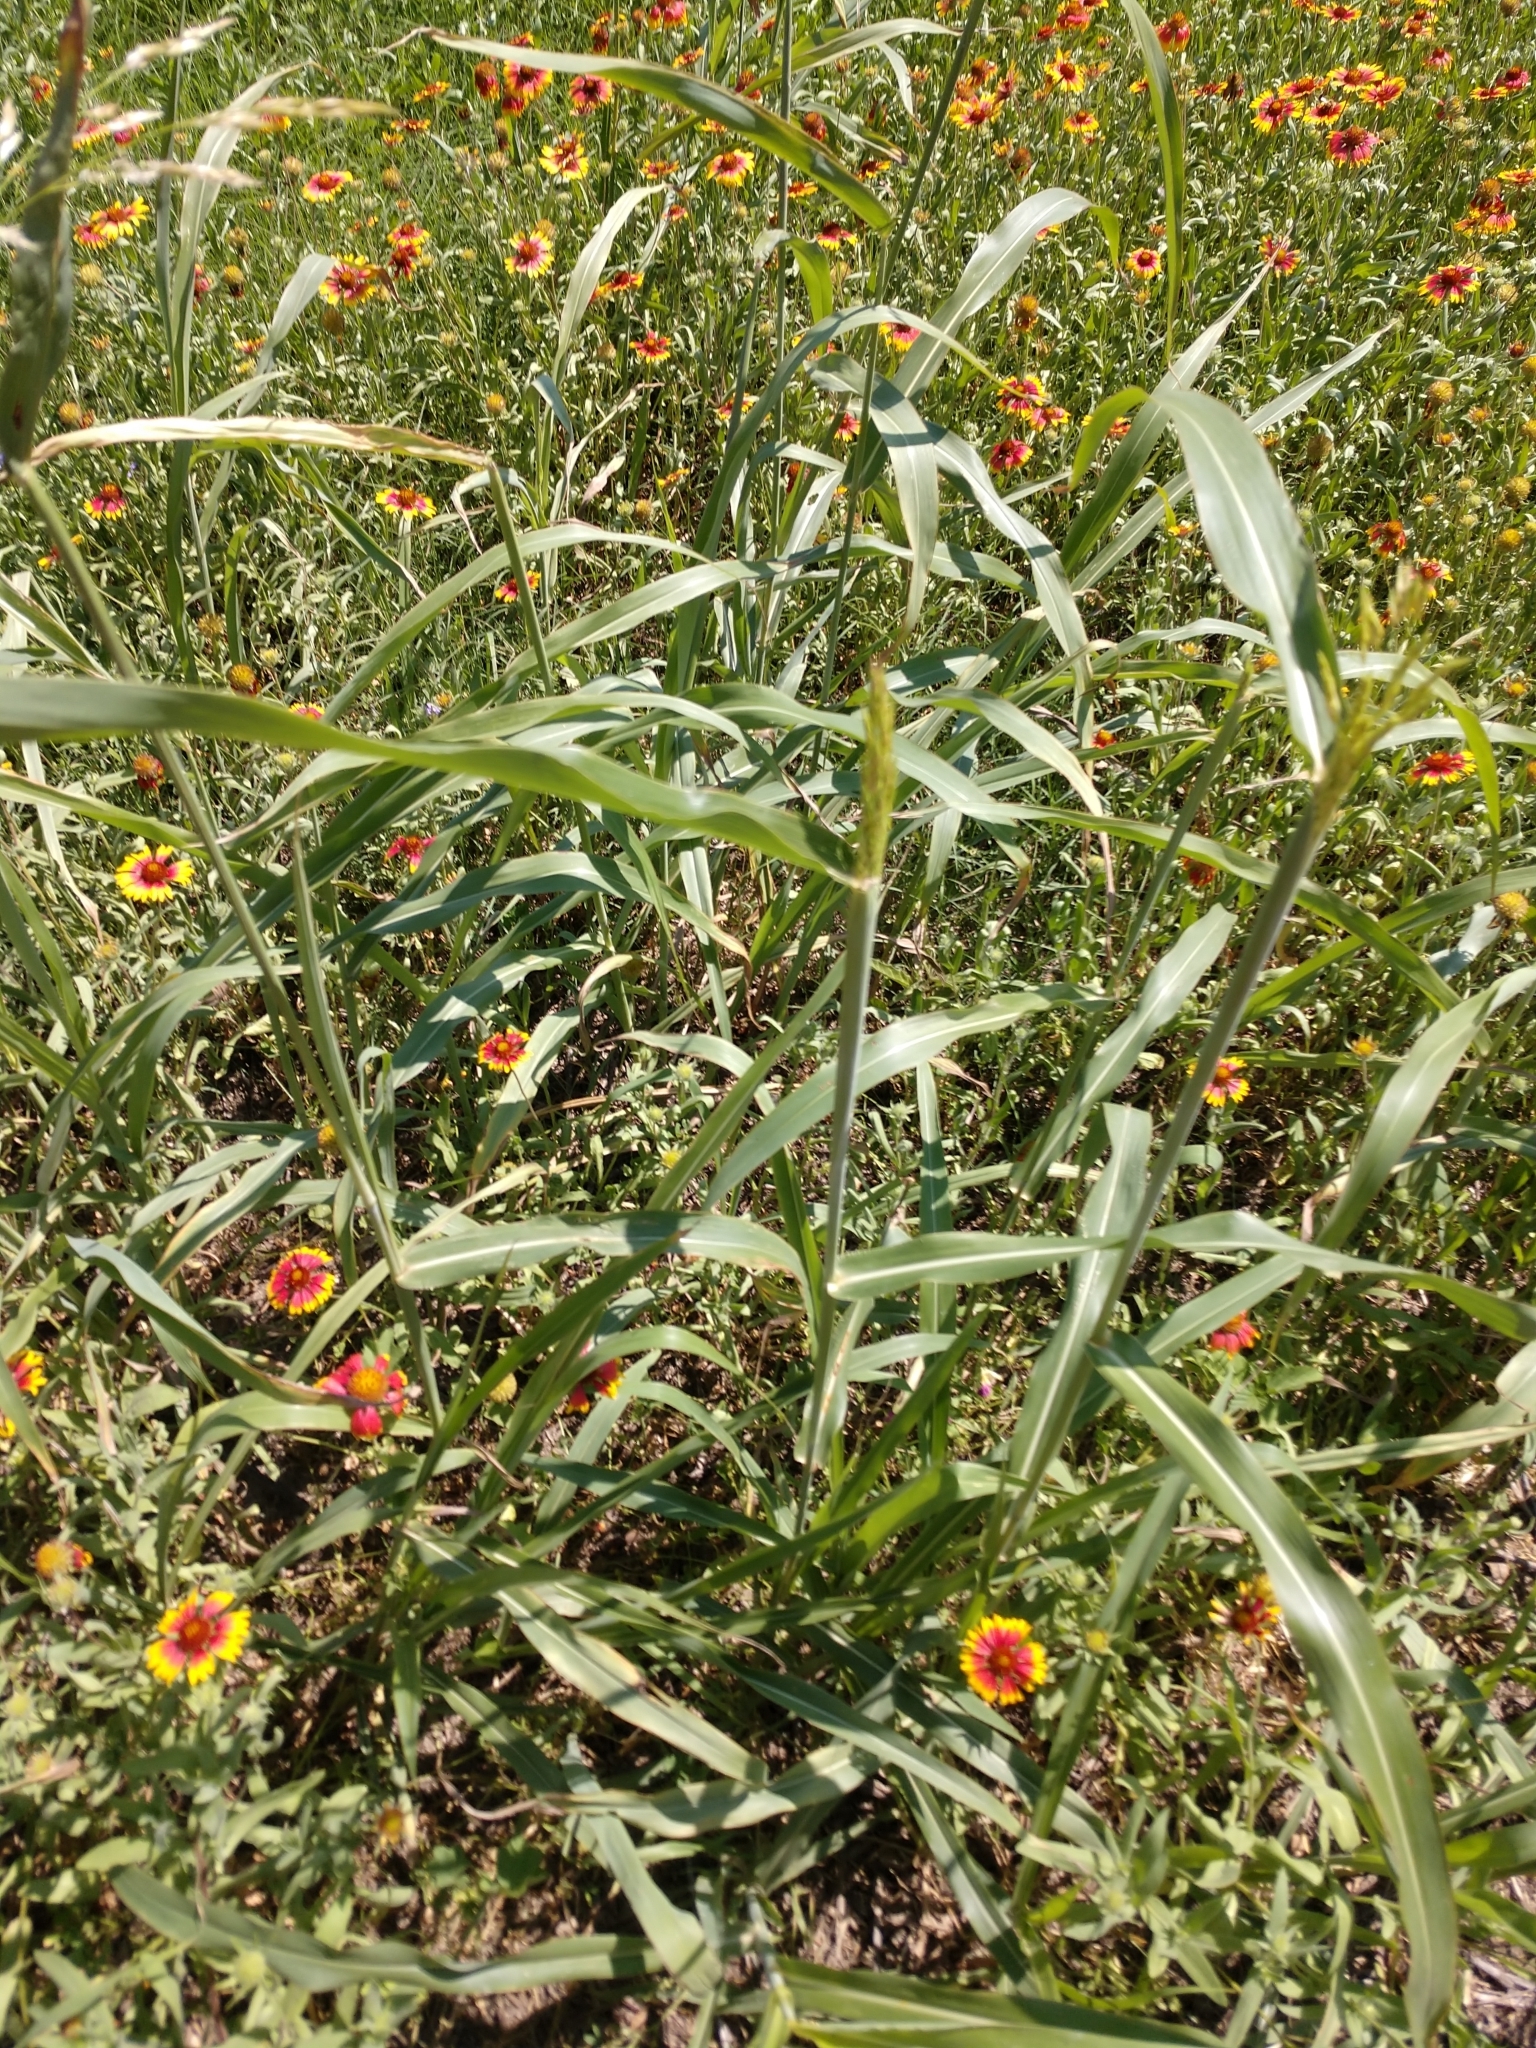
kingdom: Plantae
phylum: Tracheophyta
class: Liliopsida
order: Poales
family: Poaceae
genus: Sorghum
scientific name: Sorghum halepense
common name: Johnson-grass
